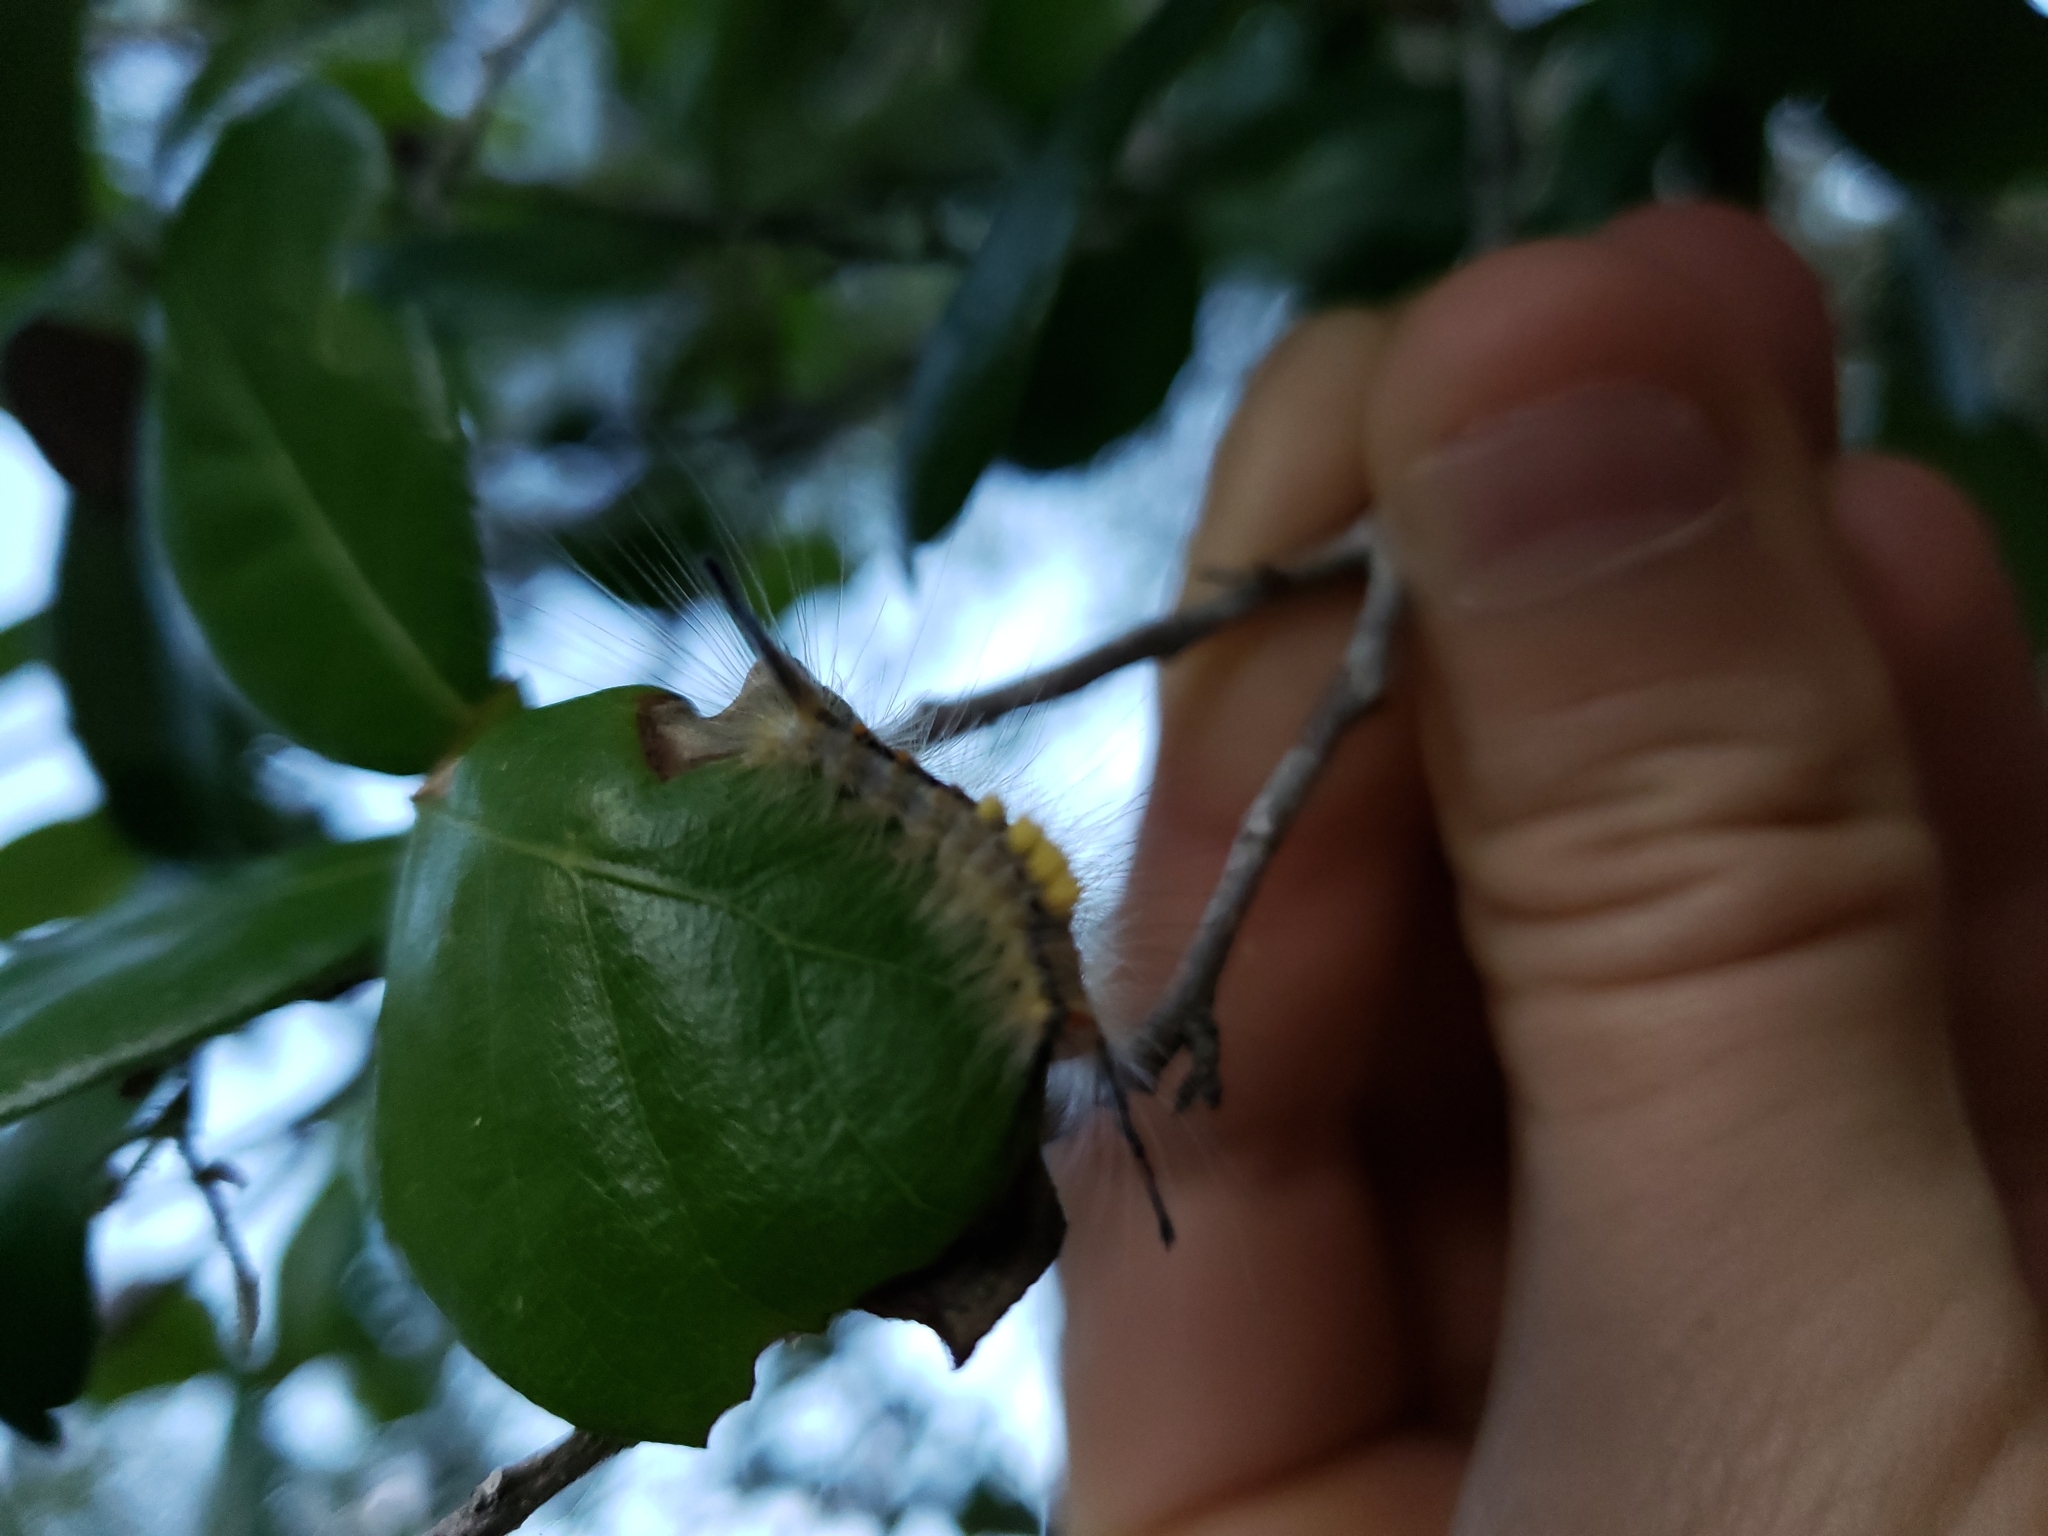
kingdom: Animalia
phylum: Arthropoda
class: Insecta
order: Lepidoptera
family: Erebidae
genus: Orgyia
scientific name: Orgyia detrita
